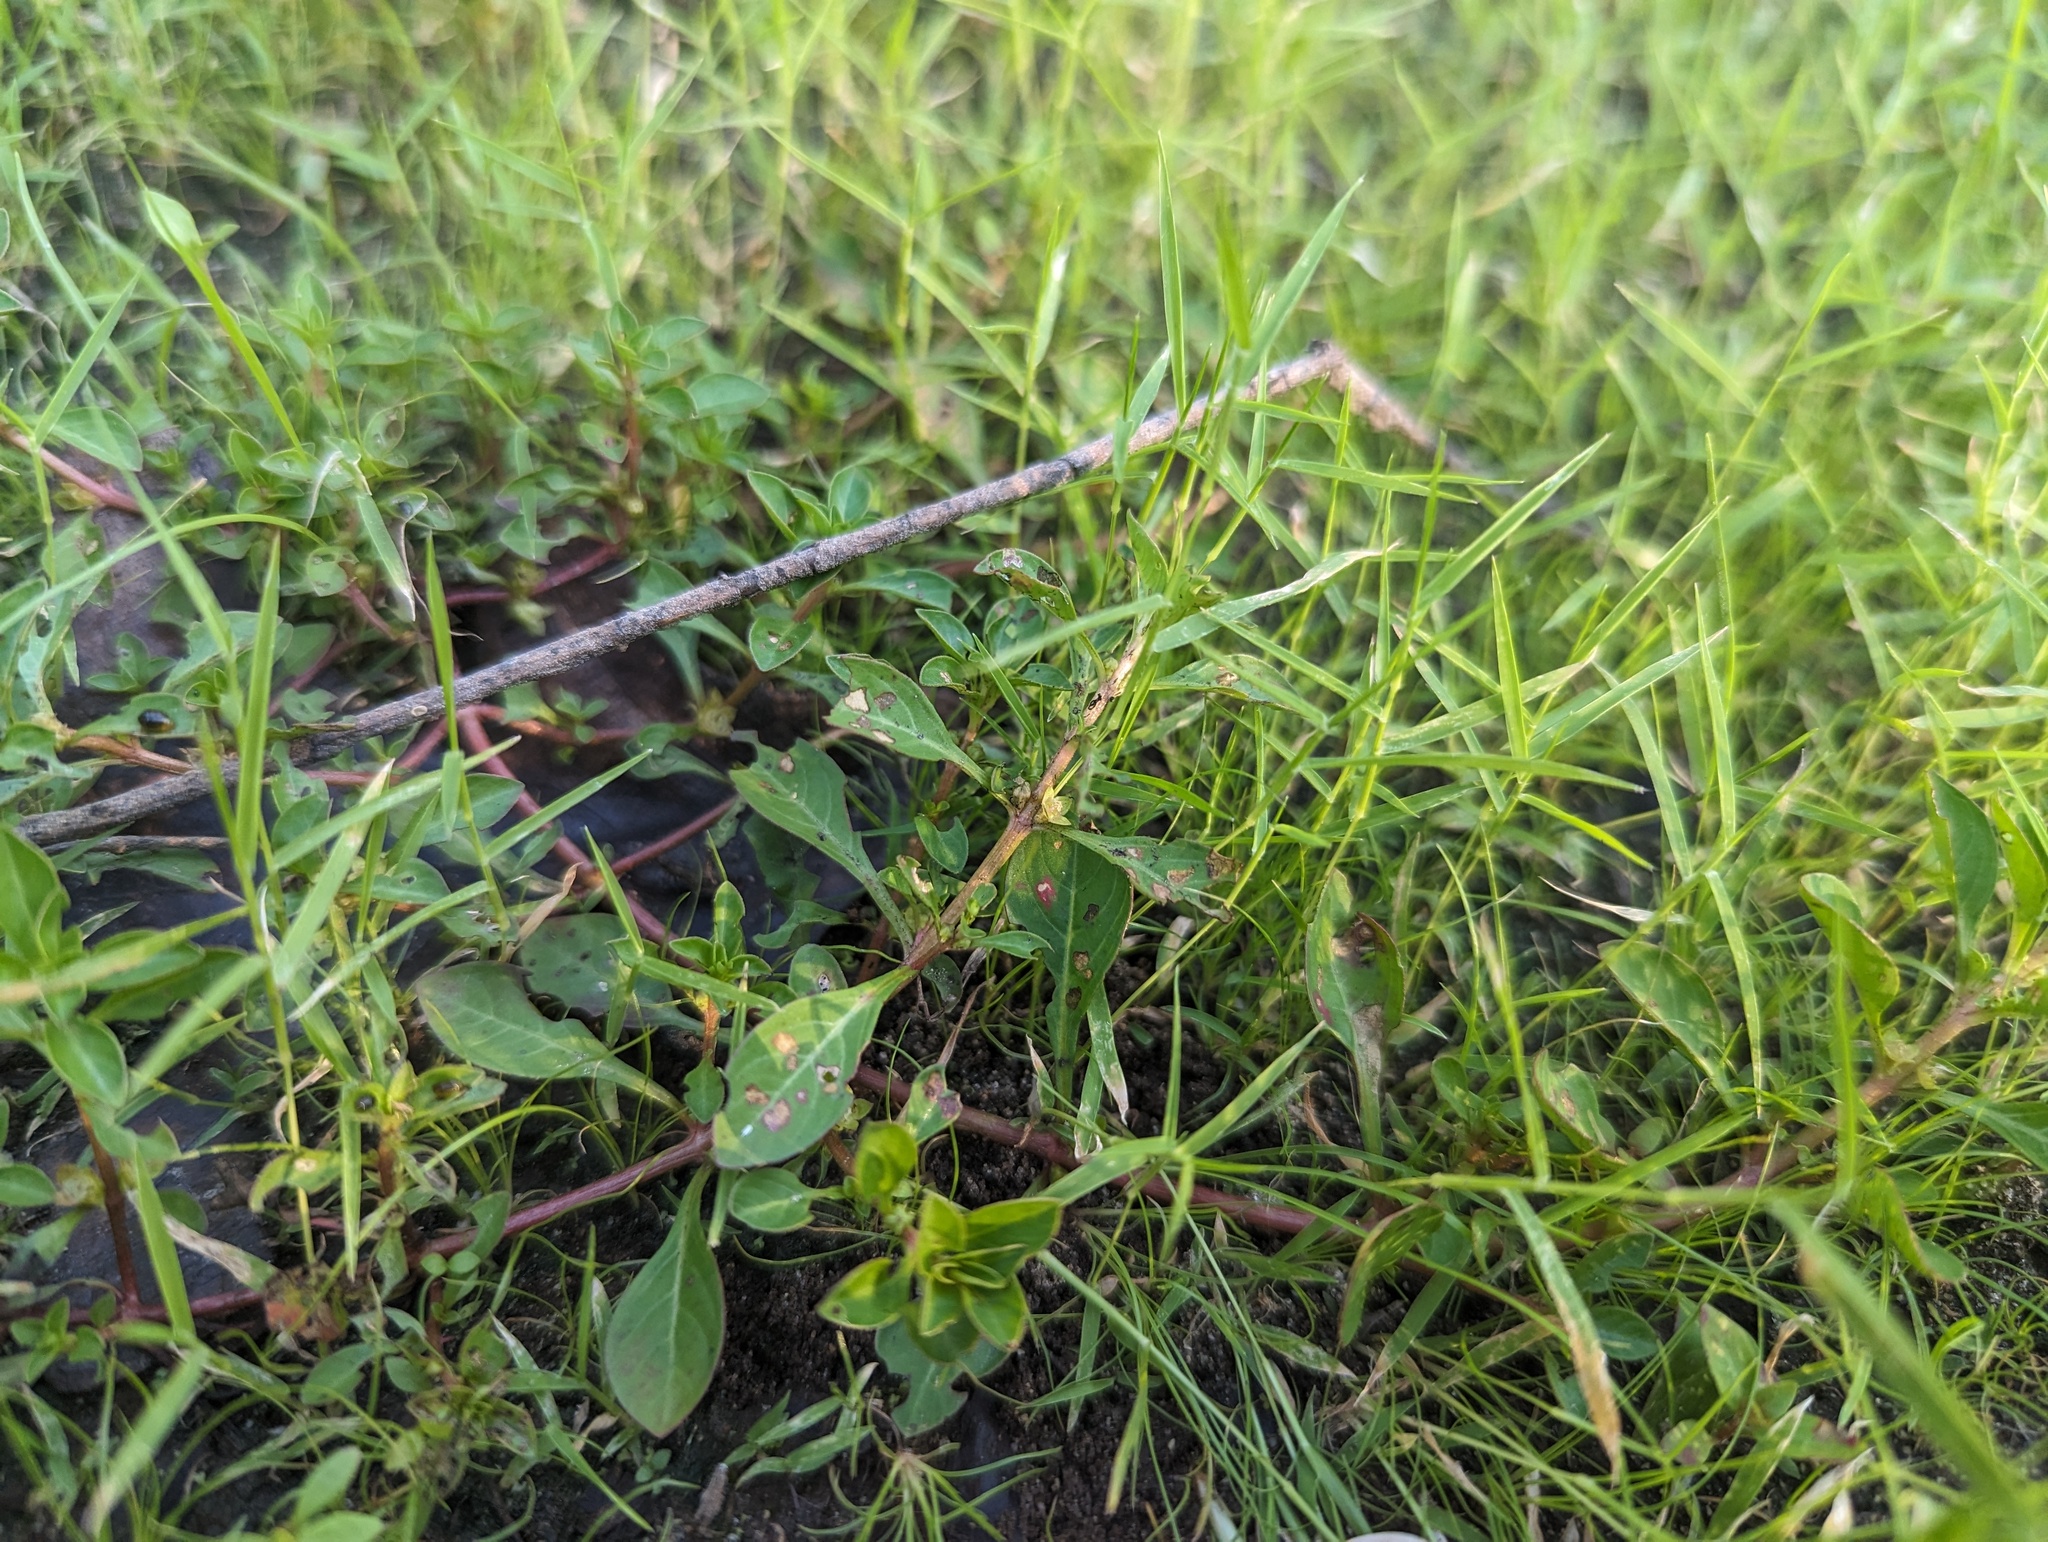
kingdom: Plantae
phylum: Tracheophyta
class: Magnoliopsida
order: Myrtales
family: Onagraceae
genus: Ludwigia
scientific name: Ludwigia palustris
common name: Hampshire-purslane
